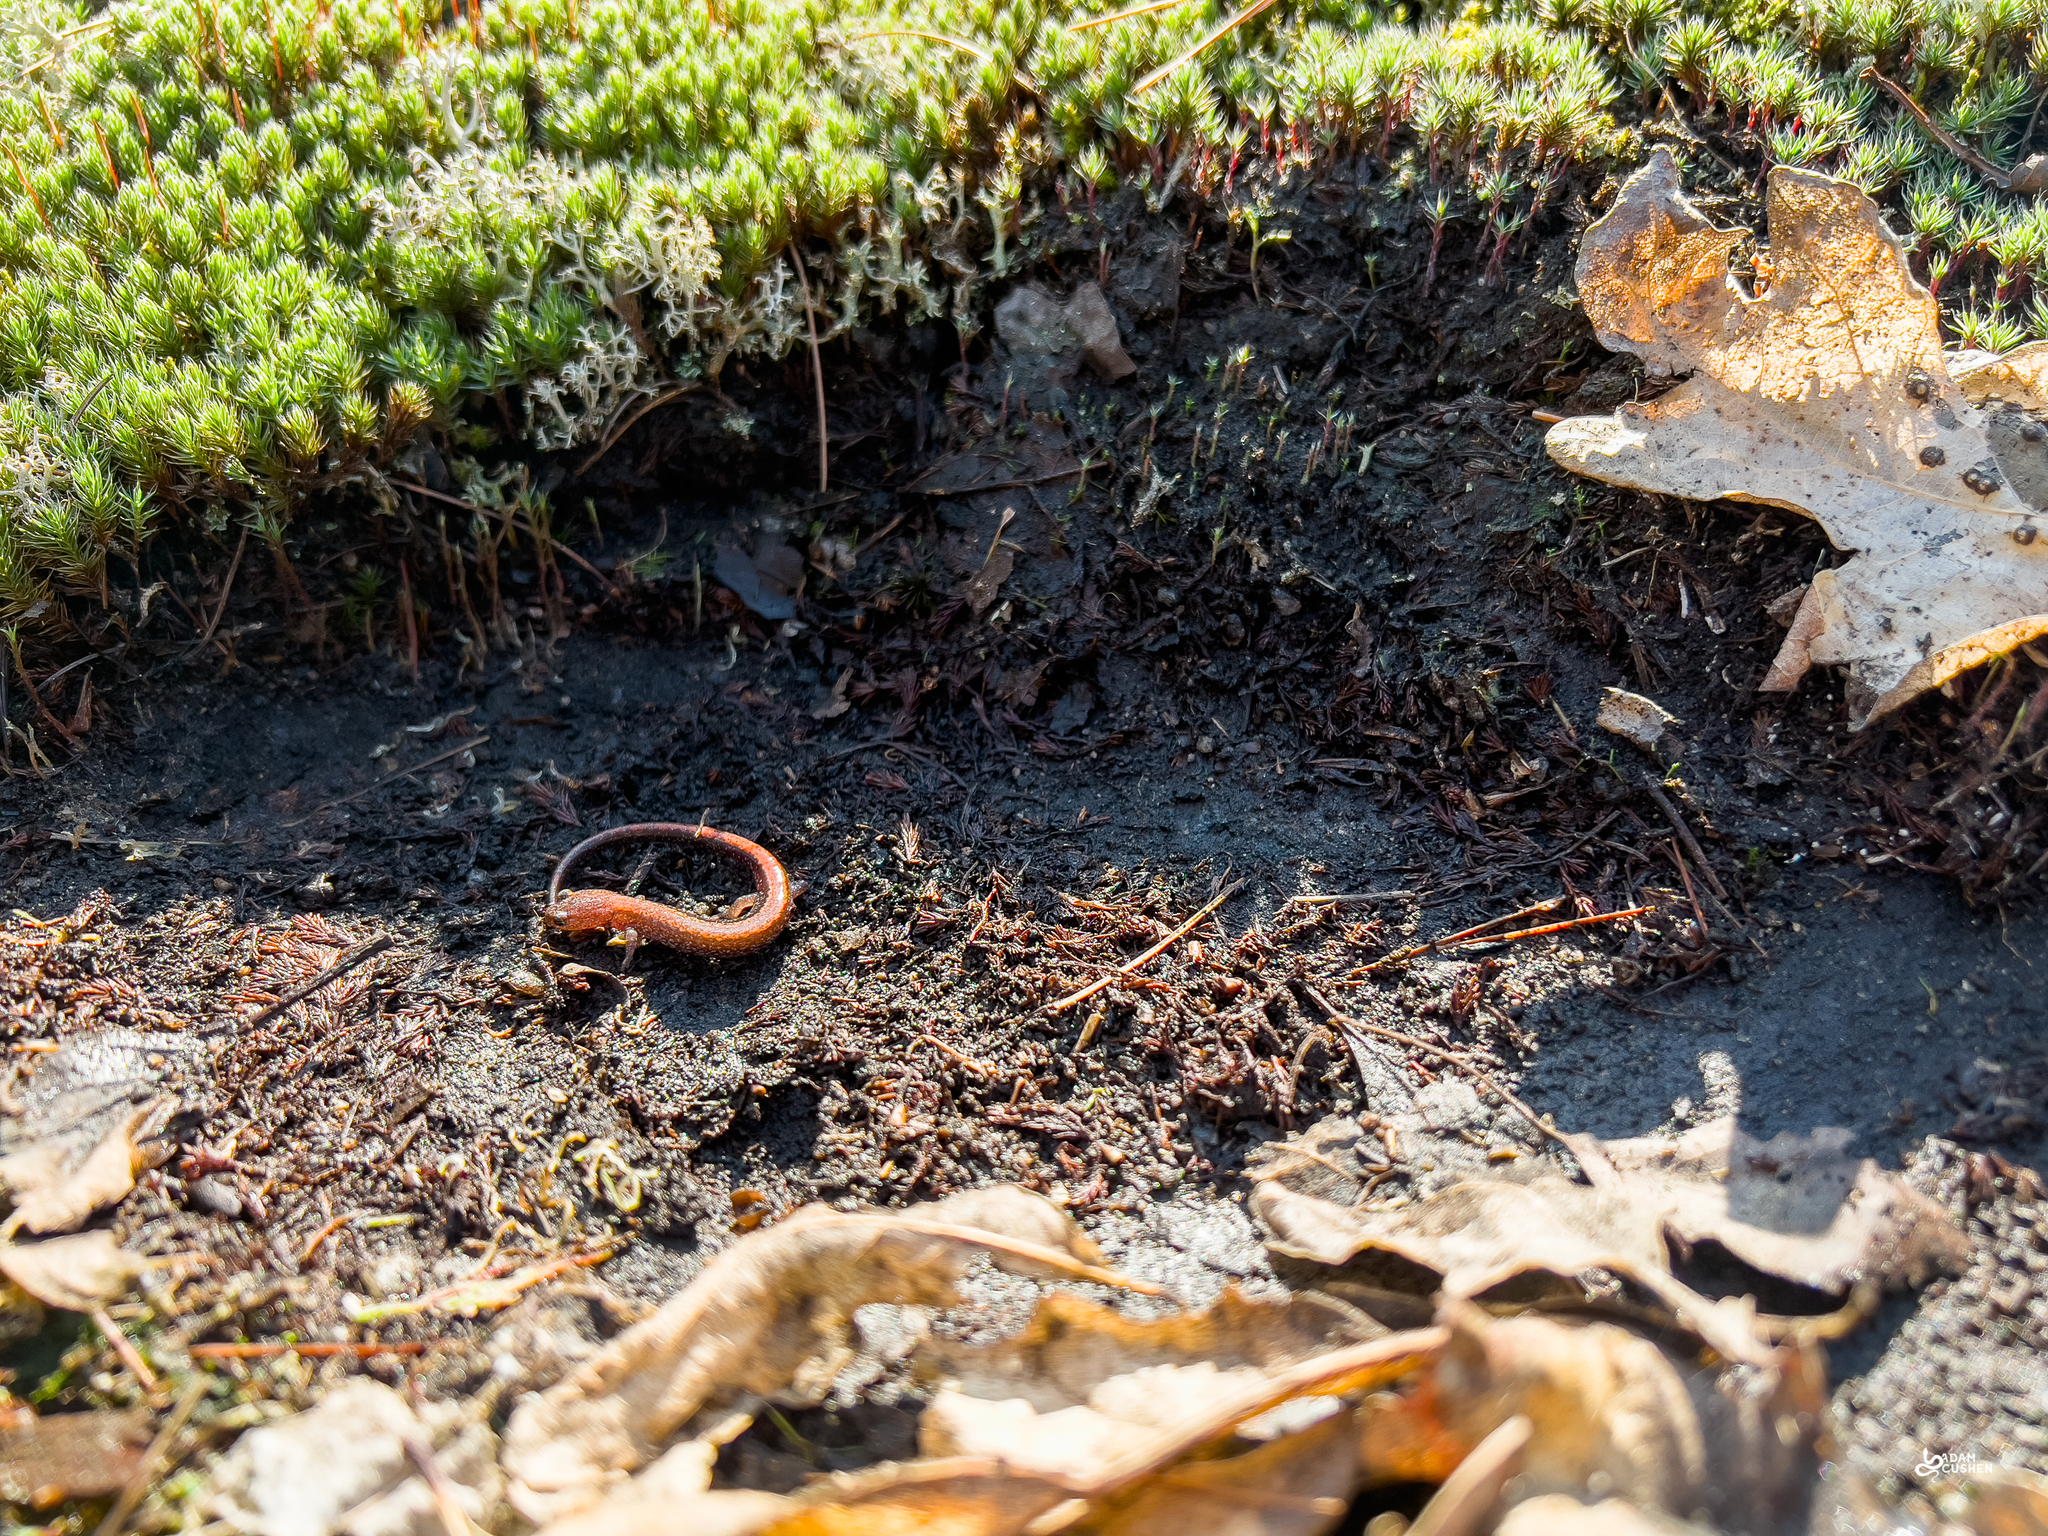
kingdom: Animalia
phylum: Chordata
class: Amphibia
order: Caudata
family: Plethodontidae
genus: Plethodon
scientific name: Plethodon cinereus
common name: Redback salamander
